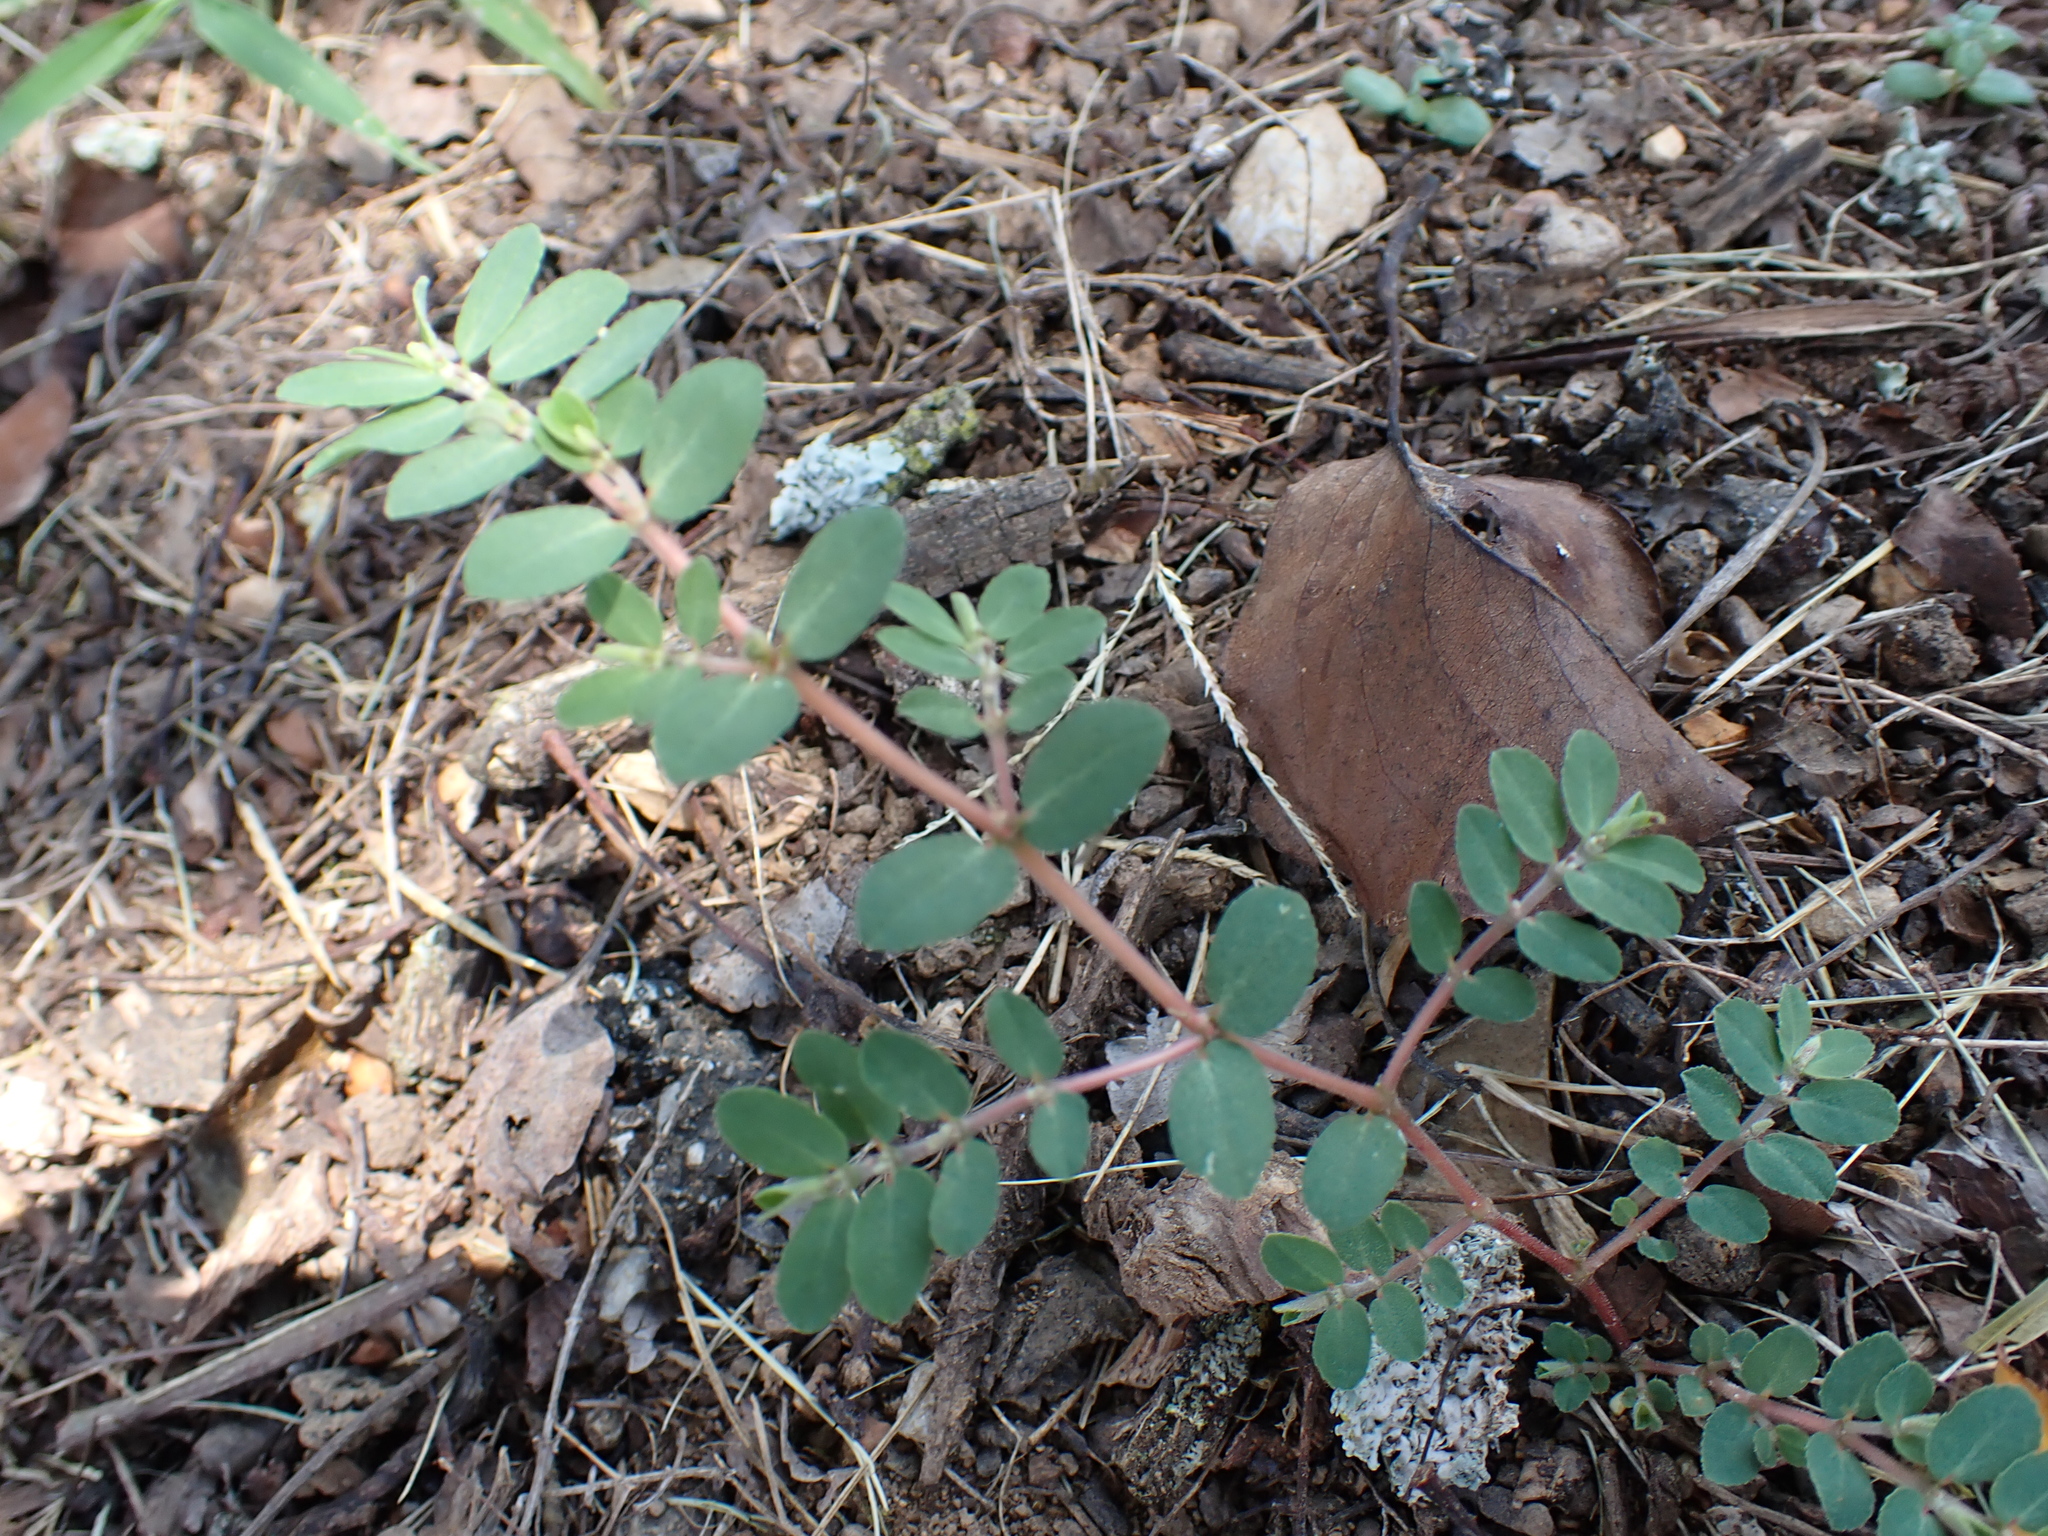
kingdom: Plantae
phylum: Tracheophyta
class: Magnoliopsida
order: Malpighiales
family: Euphorbiaceae
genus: Euphorbia
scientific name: Euphorbia prostrata
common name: Prostrate sandmat
